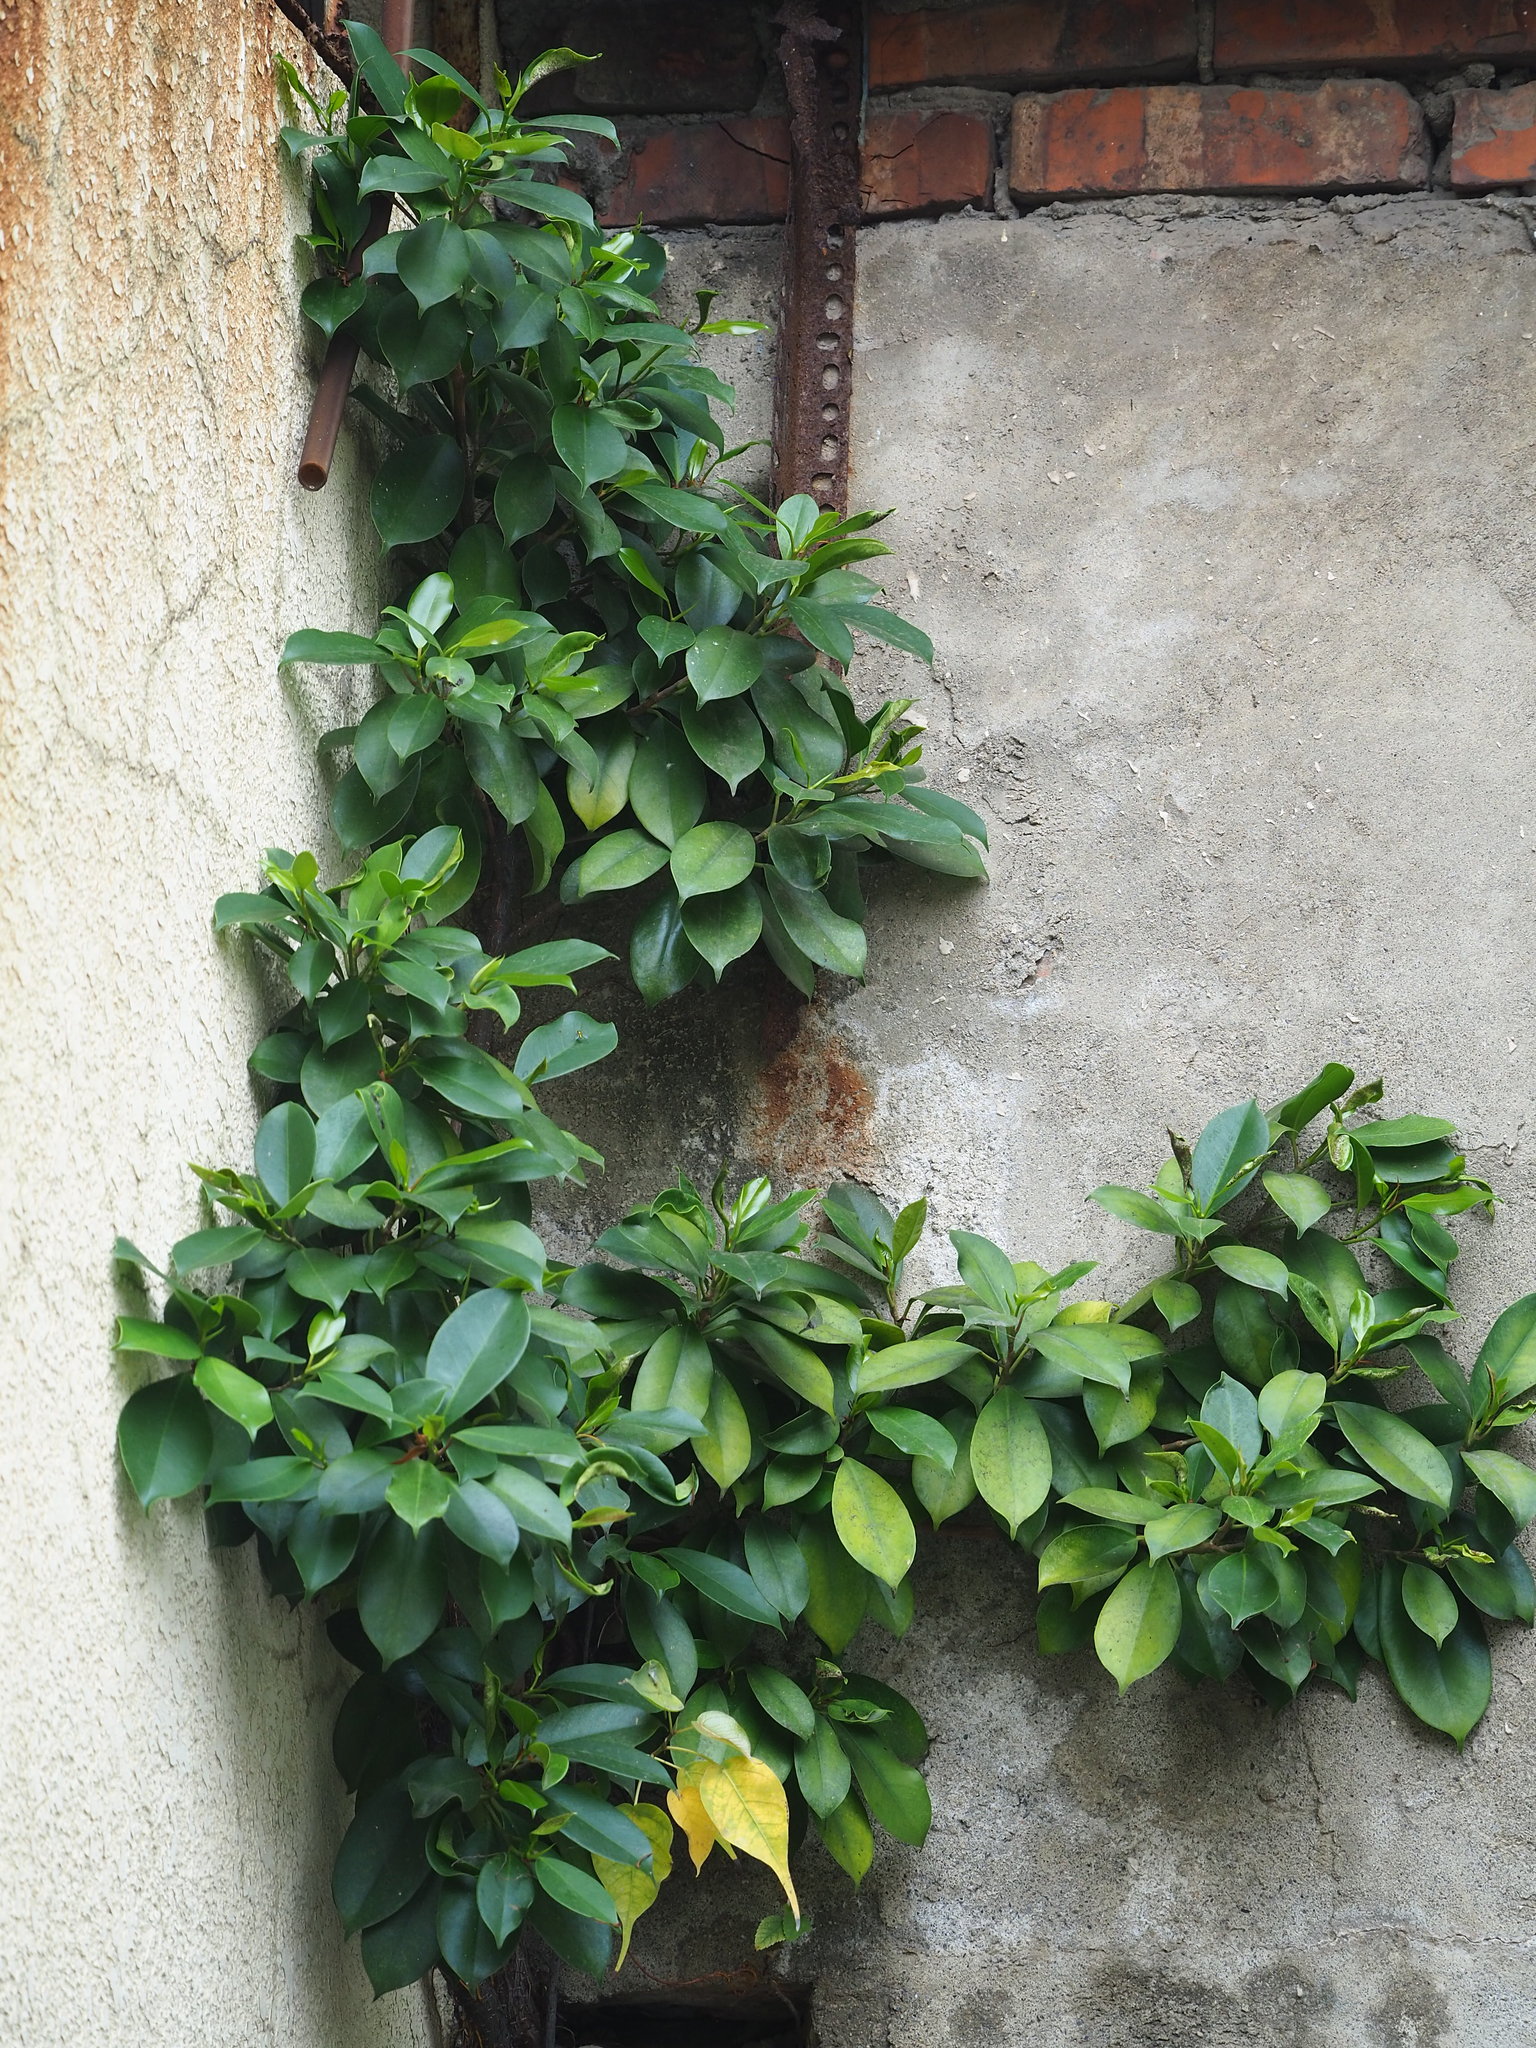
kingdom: Plantae
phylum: Tracheophyta
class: Magnoliopsida
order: Rosales
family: Moraceae
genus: Ficus
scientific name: Ficus microcarpa
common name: Chinese banyan
